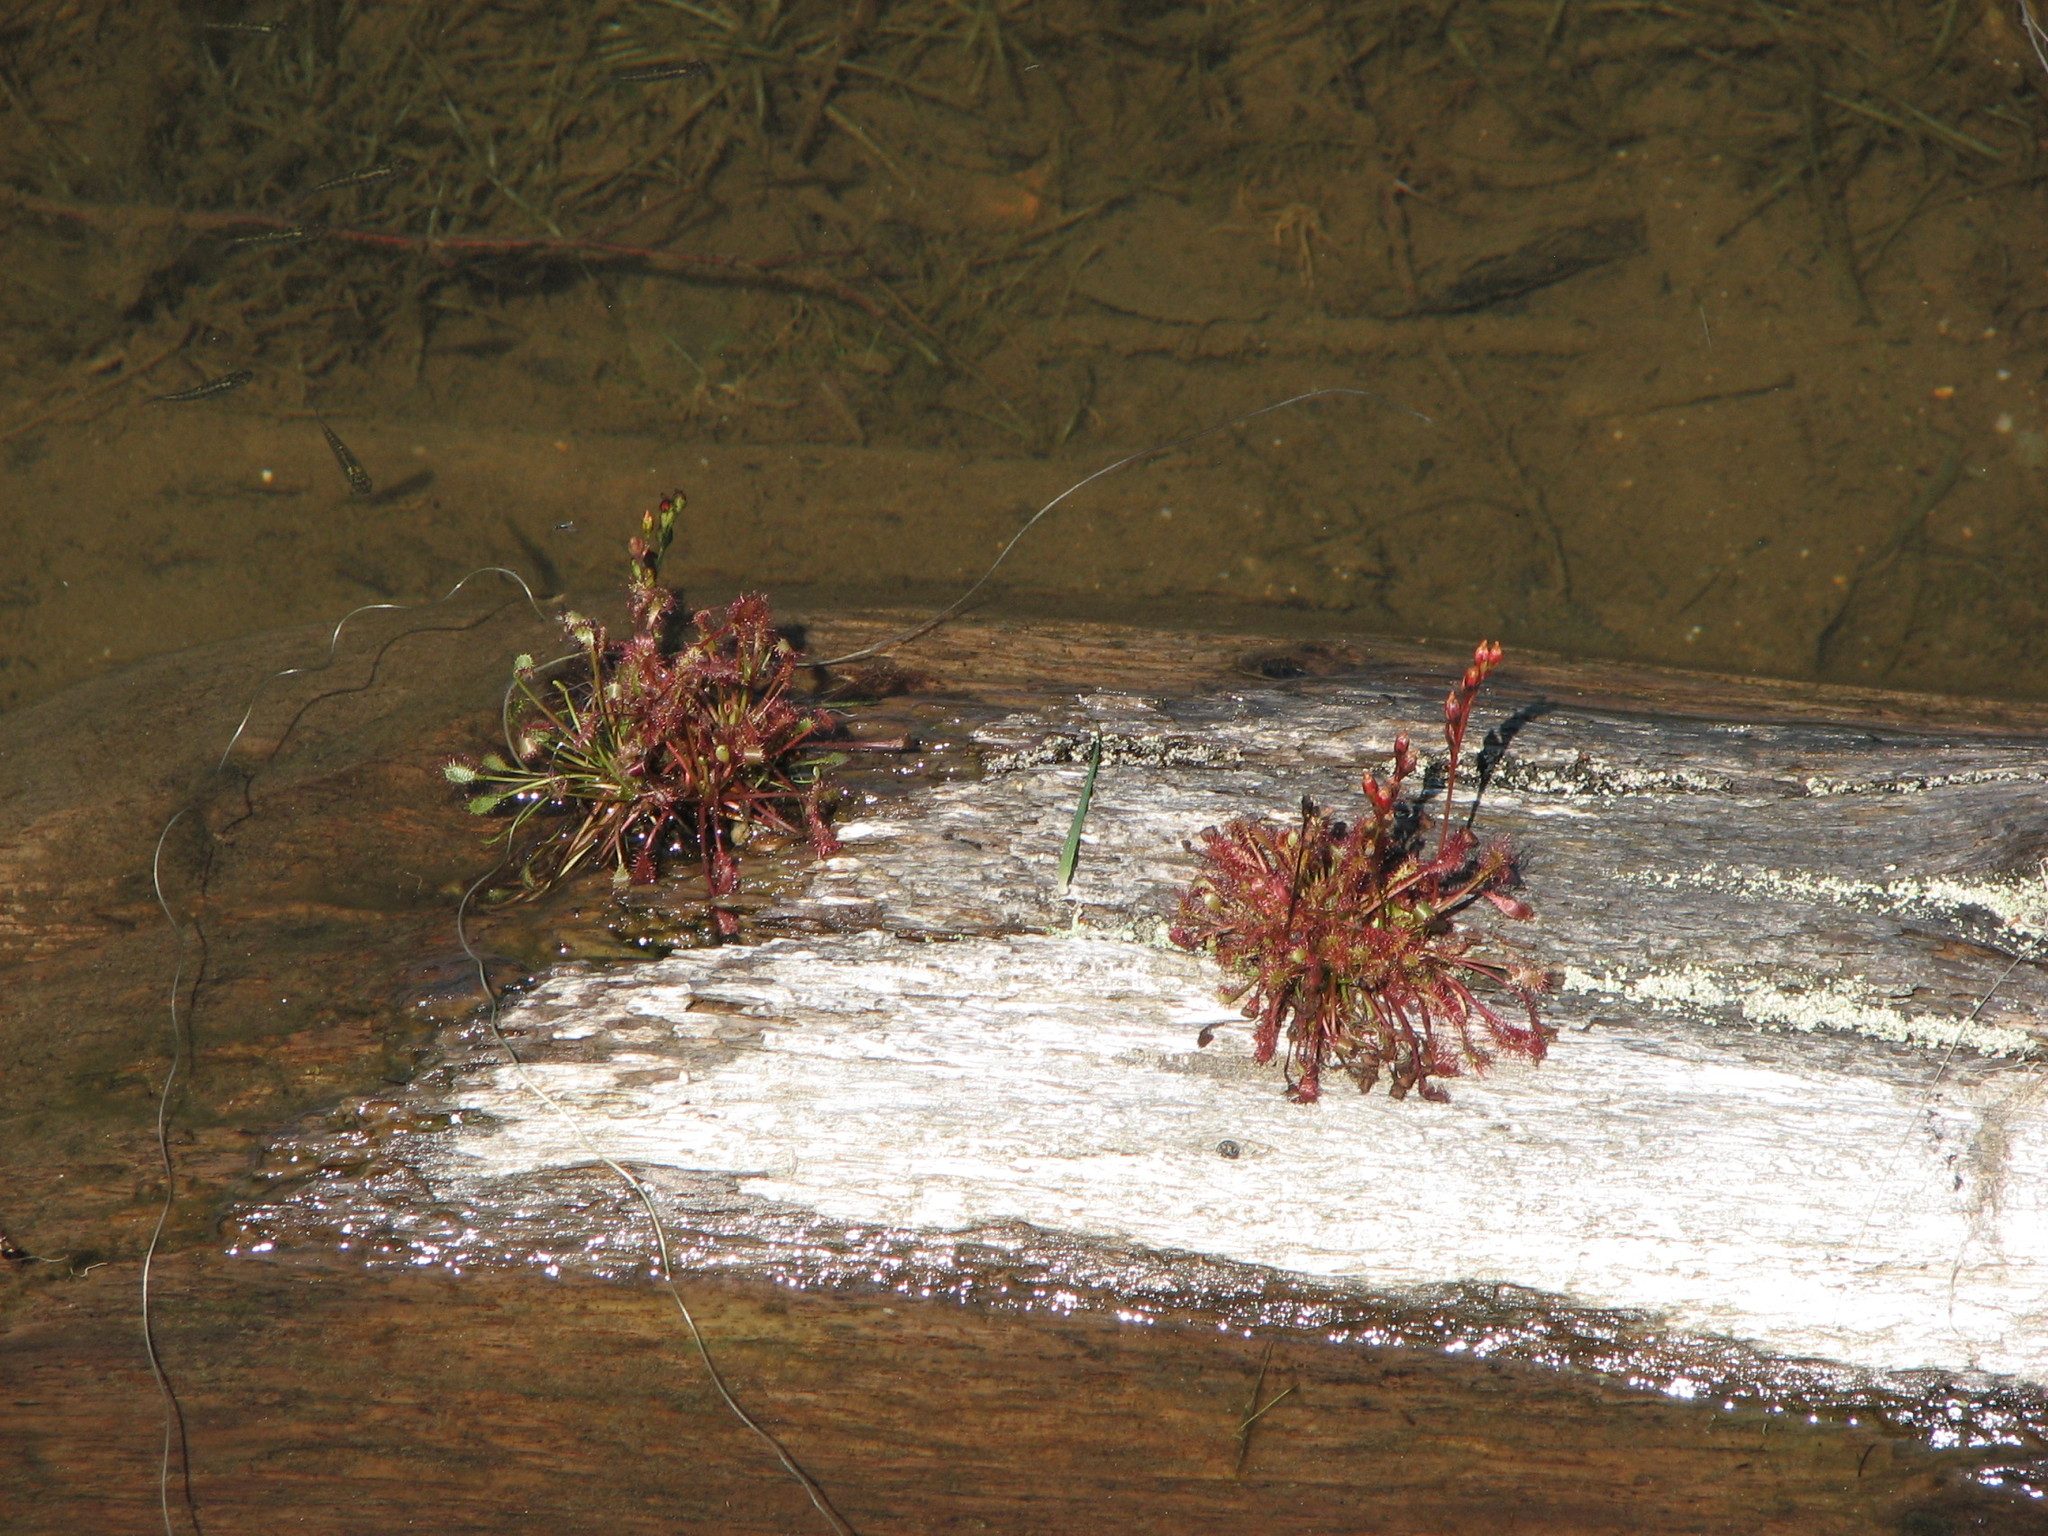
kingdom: Plantae
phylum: Tracheophyta
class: Magnoliopsida
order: Caryophyllales
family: Droseraceae
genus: Drosera
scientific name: Drosera intermedia
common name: Oblong-leaved sundew
